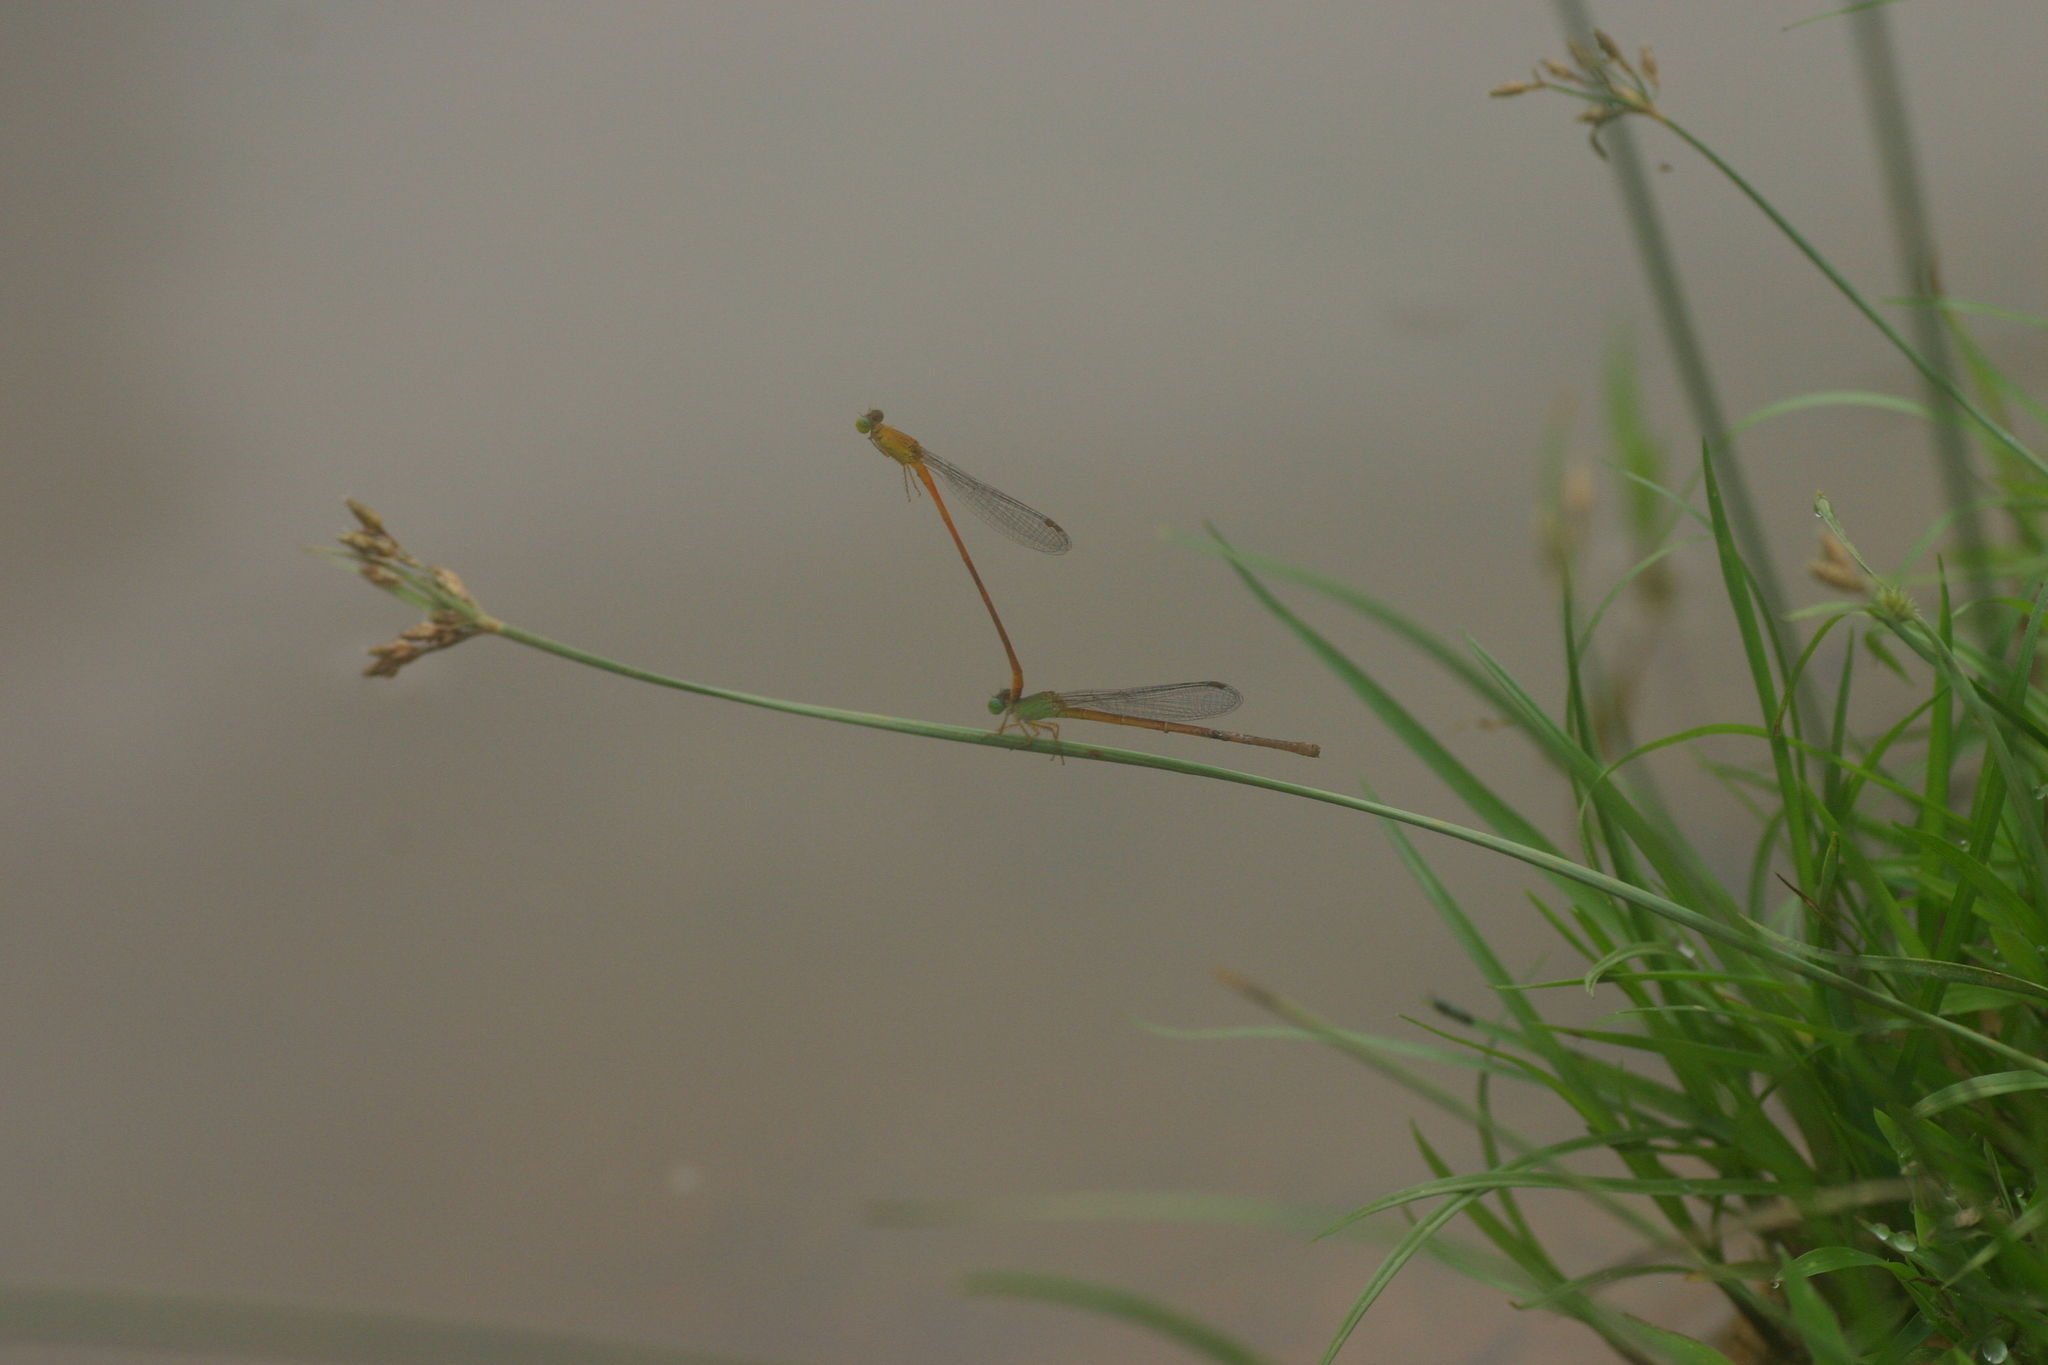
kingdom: Animalia
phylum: Arthropoda
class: Insecta
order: Odonata
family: Coenagrionidae
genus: Ceriagrion
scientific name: Ceriagrion rubiae
